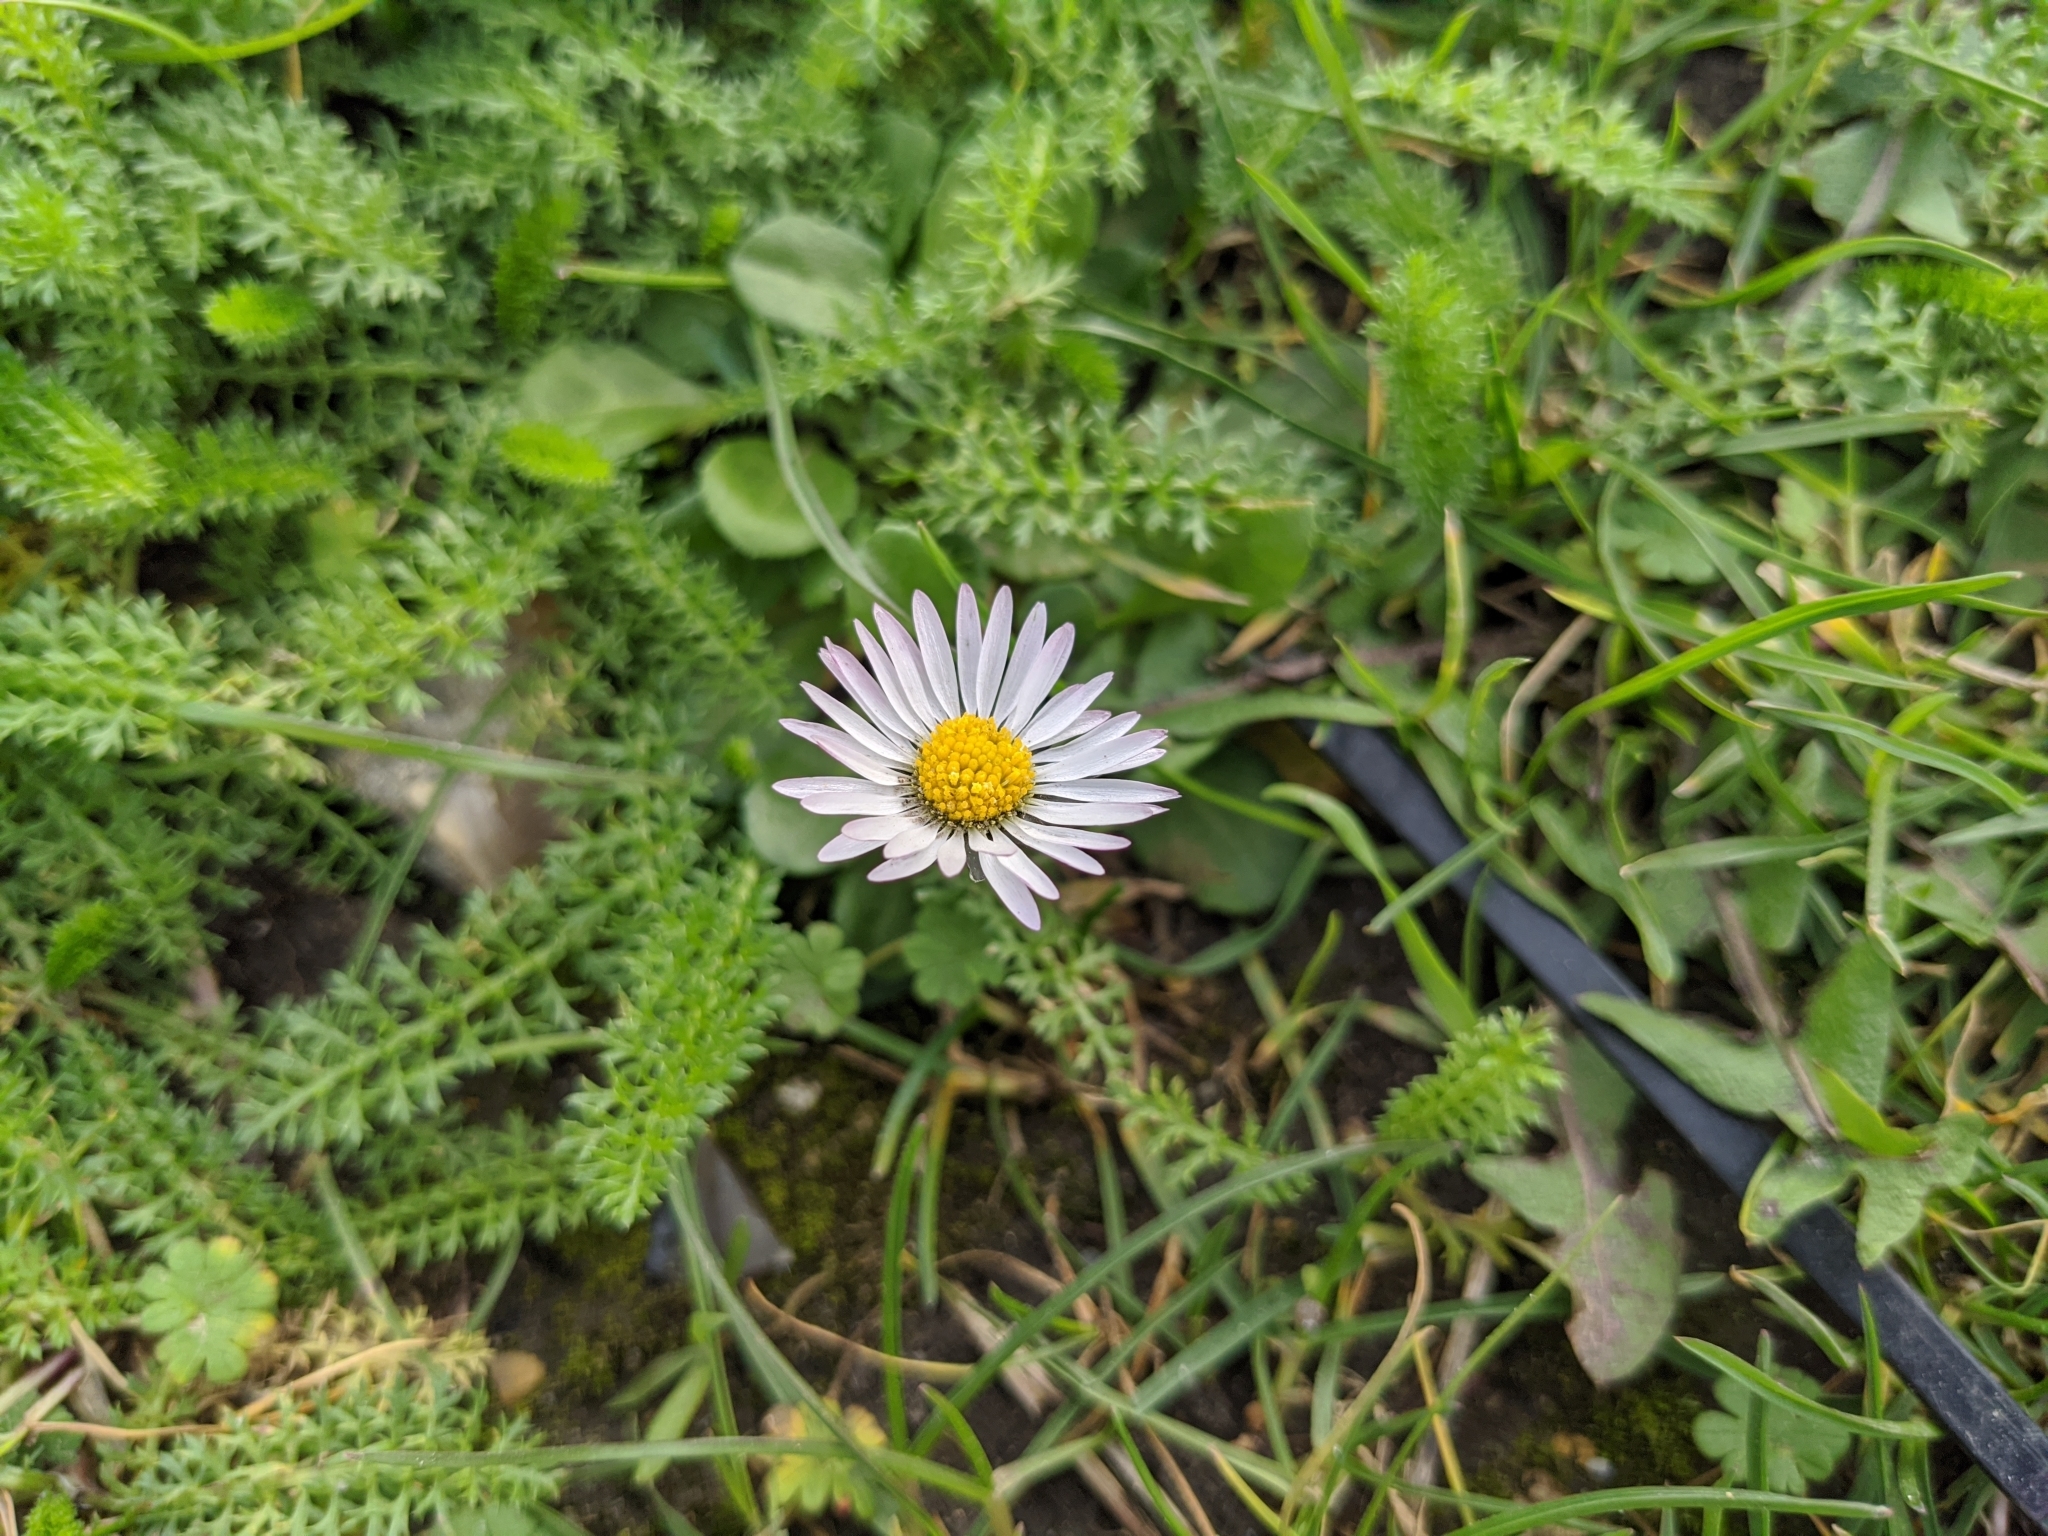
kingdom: Plantae
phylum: Tracheophyta
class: Magnoliopsida
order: Asterales
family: Asteraceae
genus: Bellis
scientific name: Bellis perennis
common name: Lawndaisy
